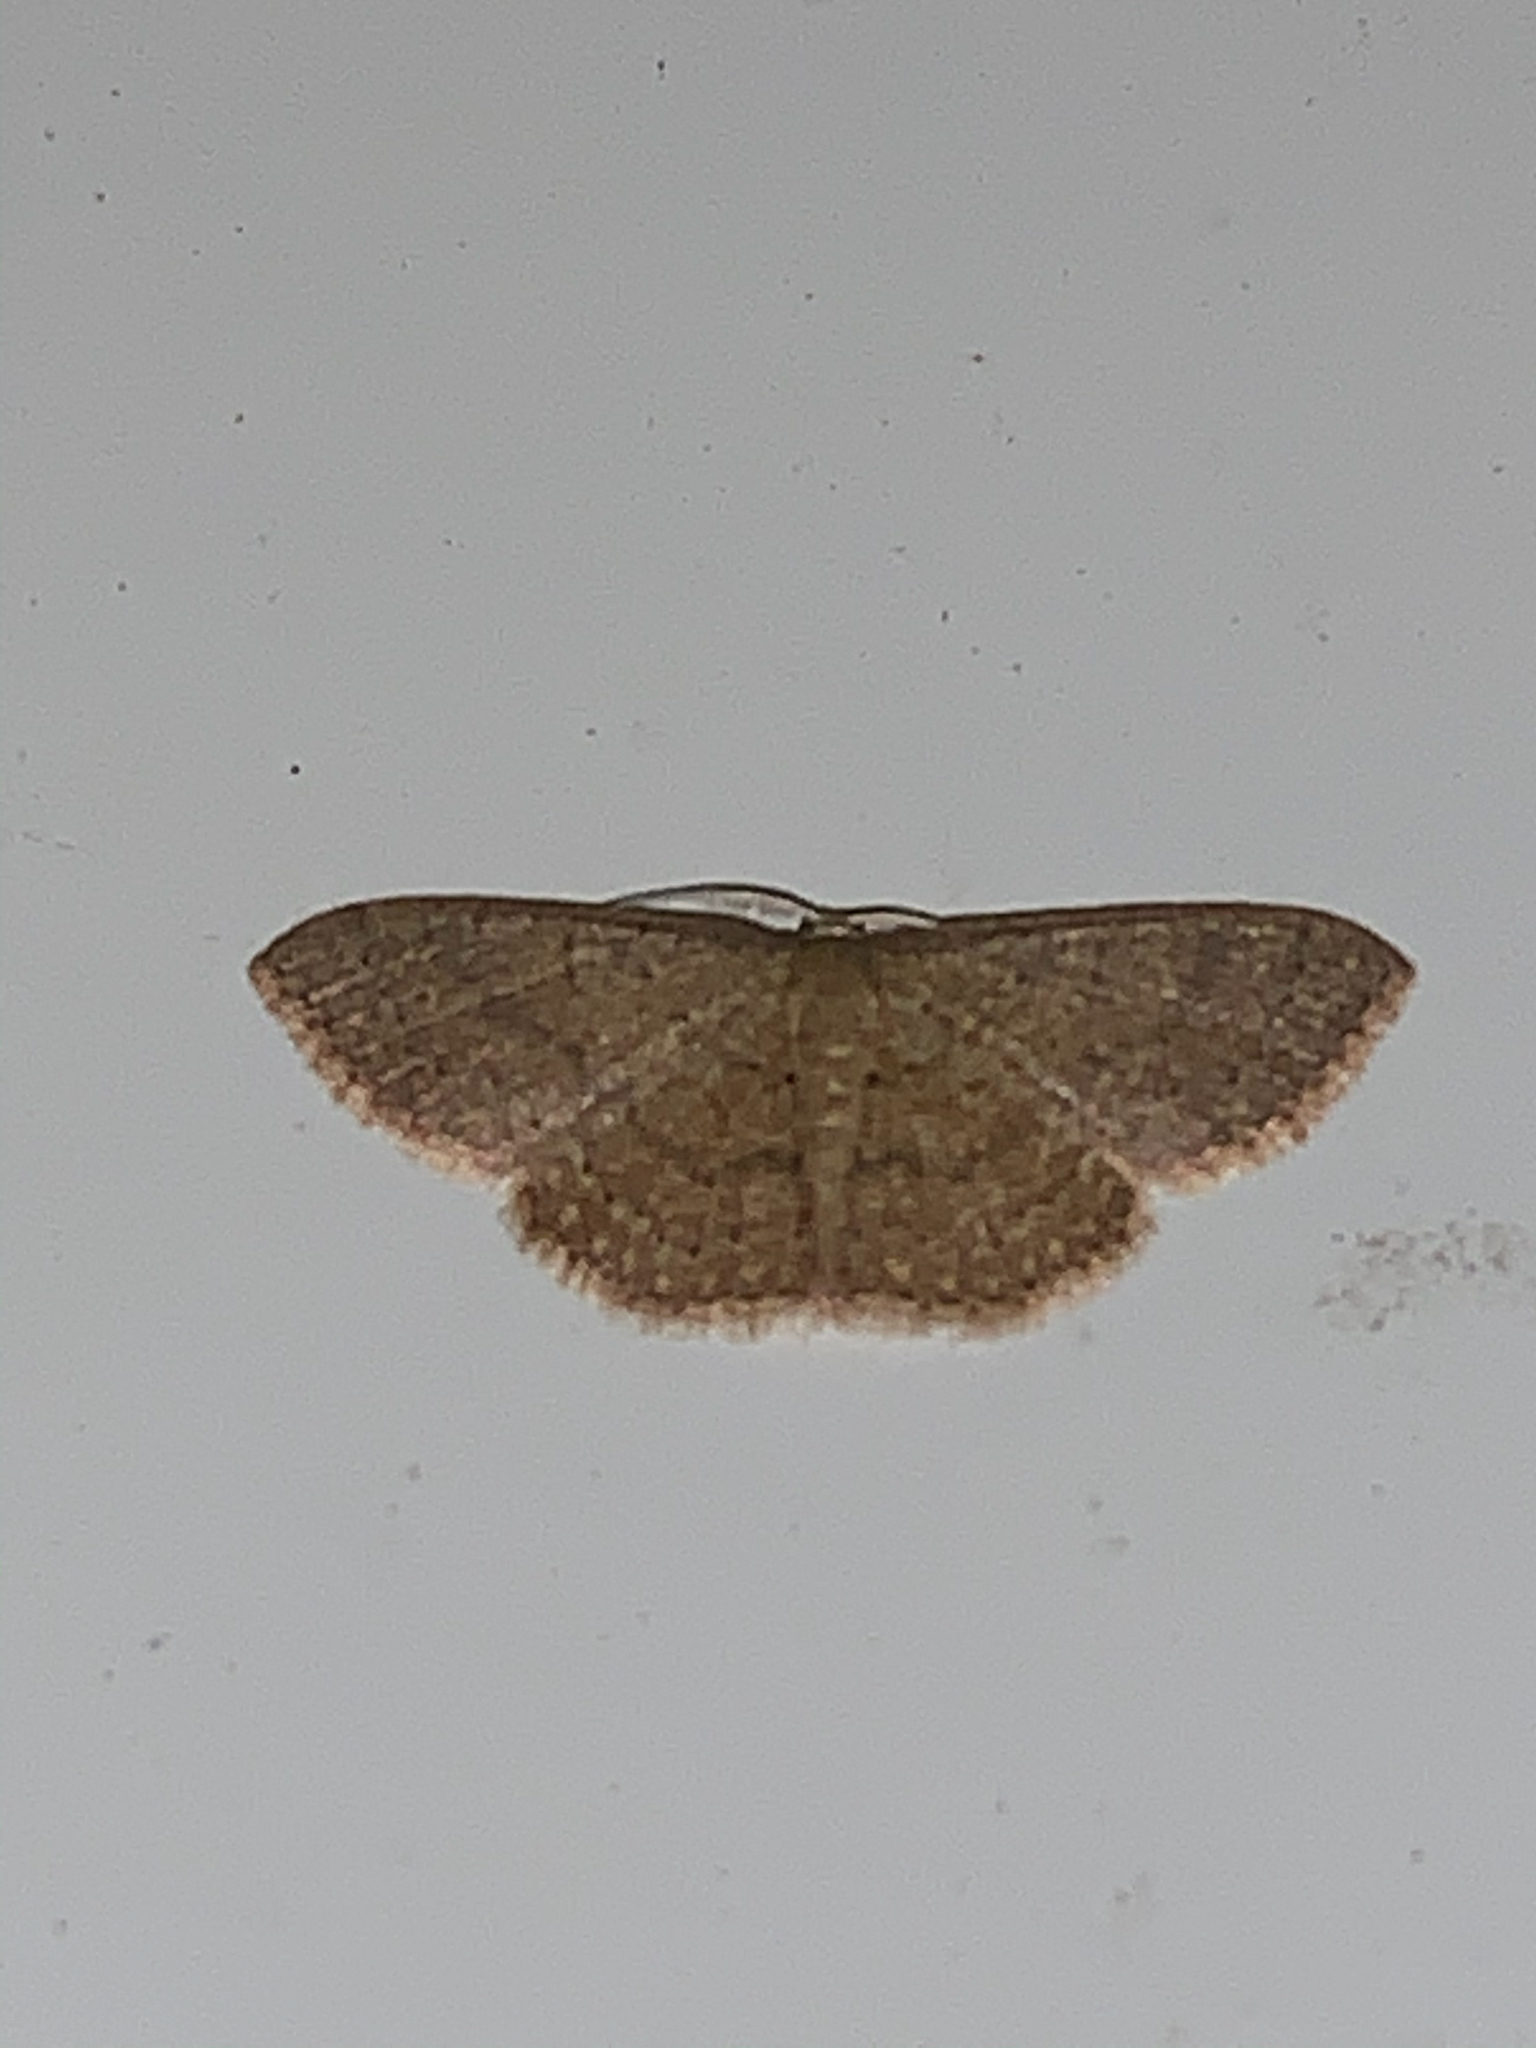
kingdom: Animalia
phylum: Arthropoda
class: Insecta
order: Lepidoptera
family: Geometridae
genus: Pleuroprucha
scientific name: Pleuroprucha insulsaria
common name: Common tan wave
